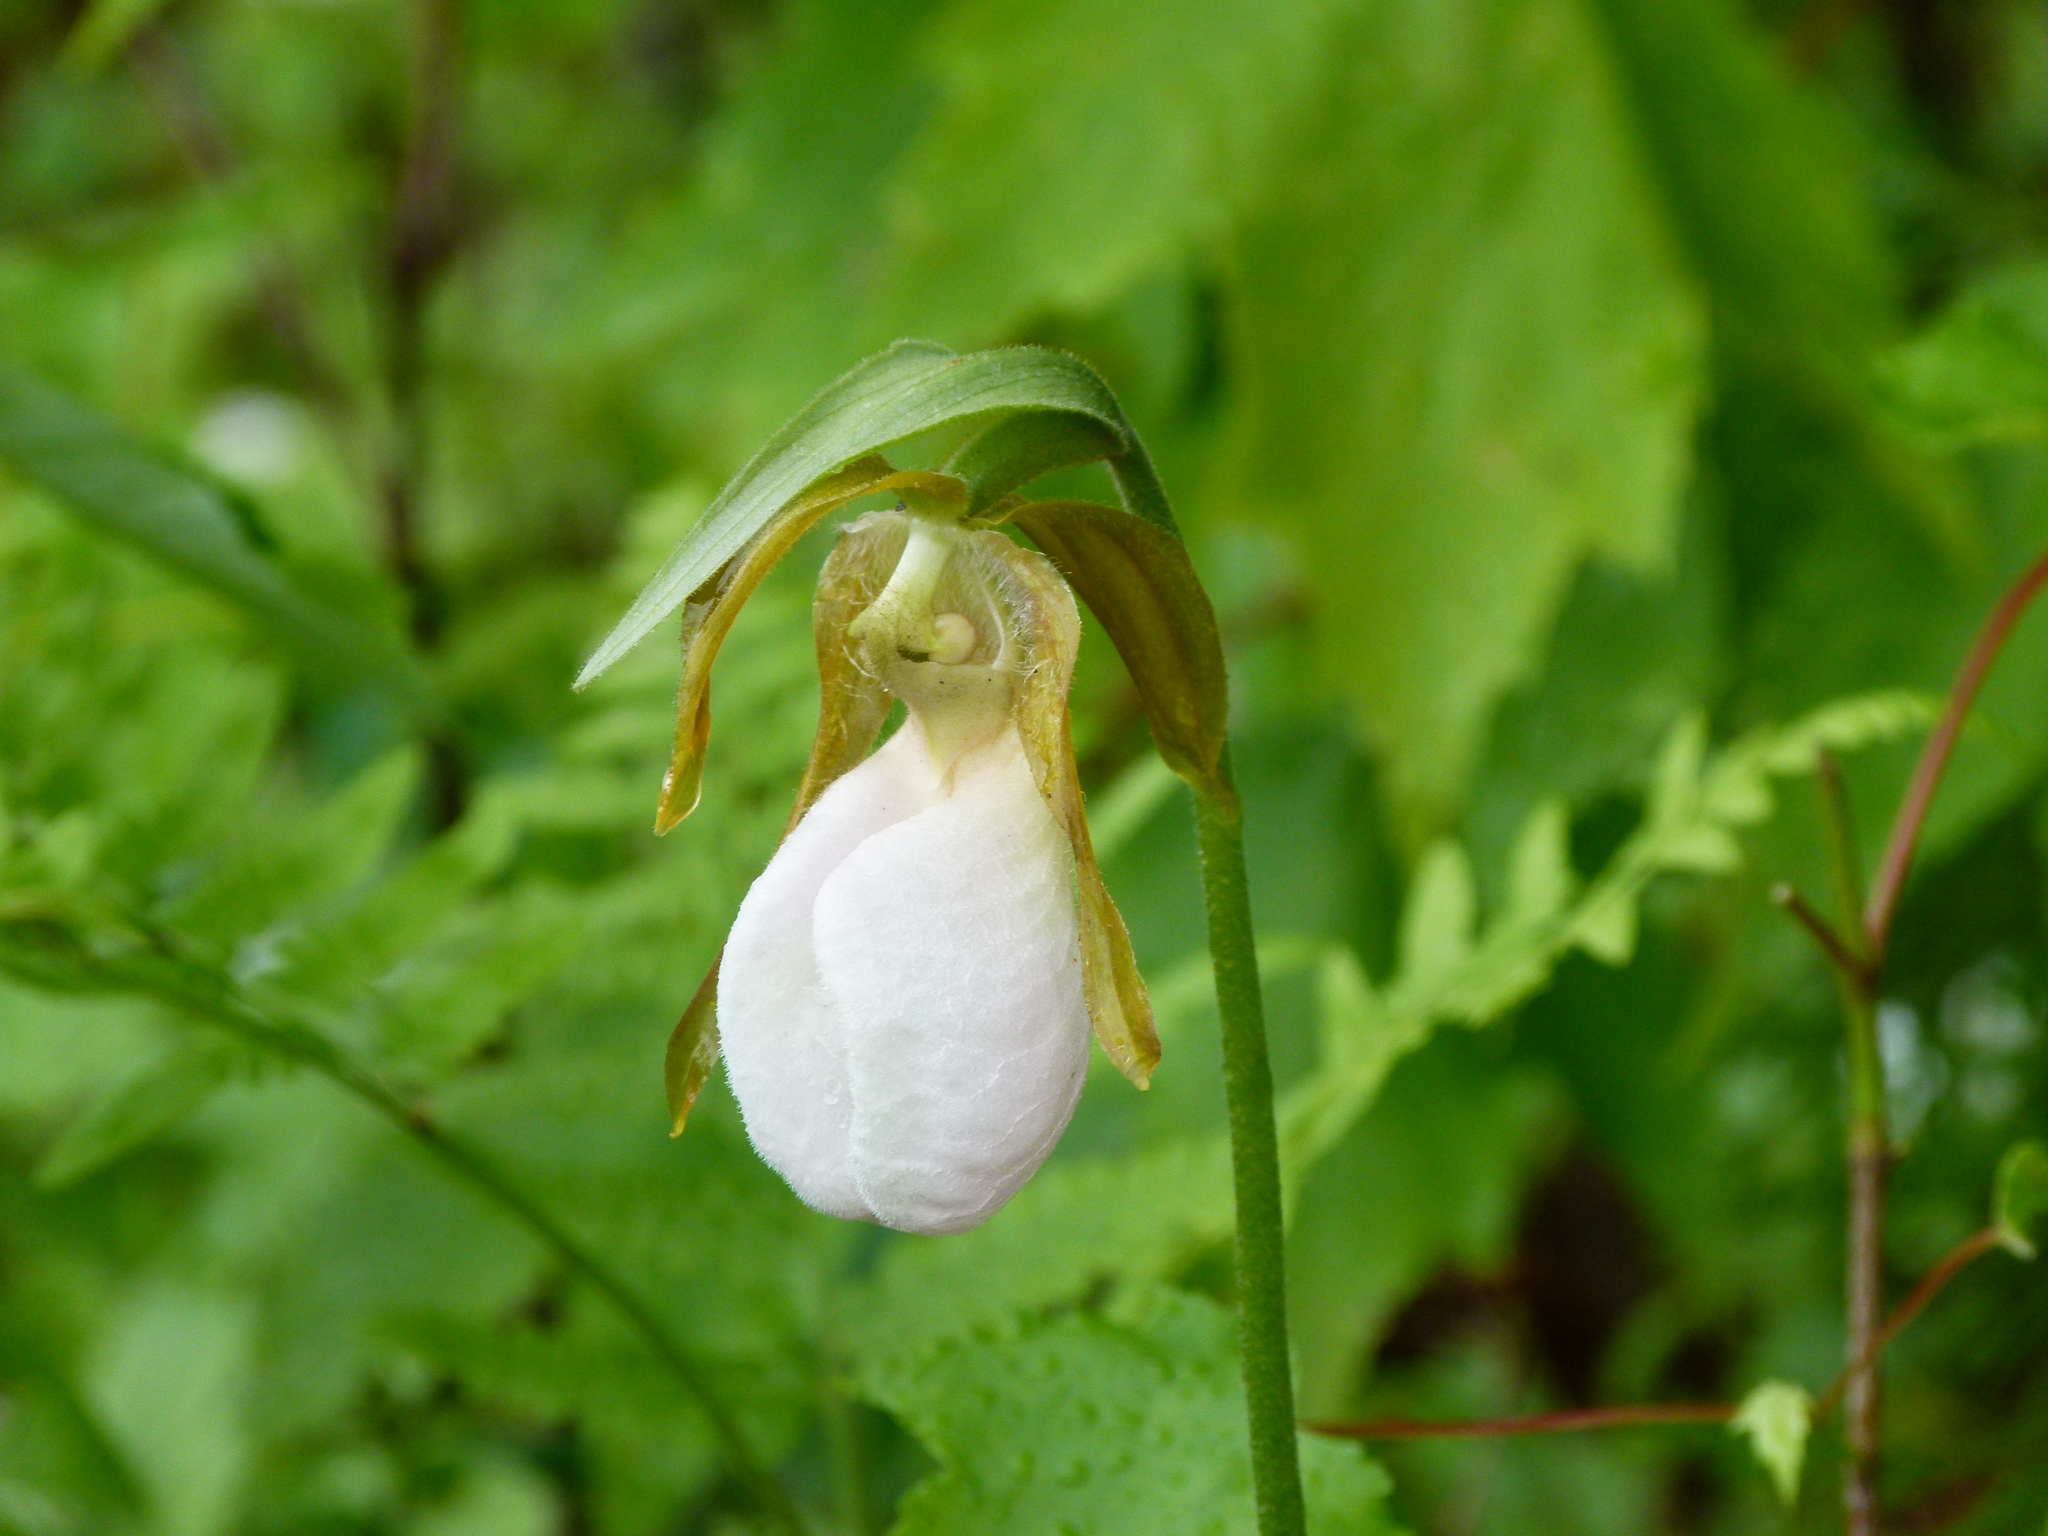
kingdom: Plantae
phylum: Tracheophyta
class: Liliopsida
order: Asparagales
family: Orchidaceae
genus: Cypripedium
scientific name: Cypripedium acaule
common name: Pink lady's-slipper
